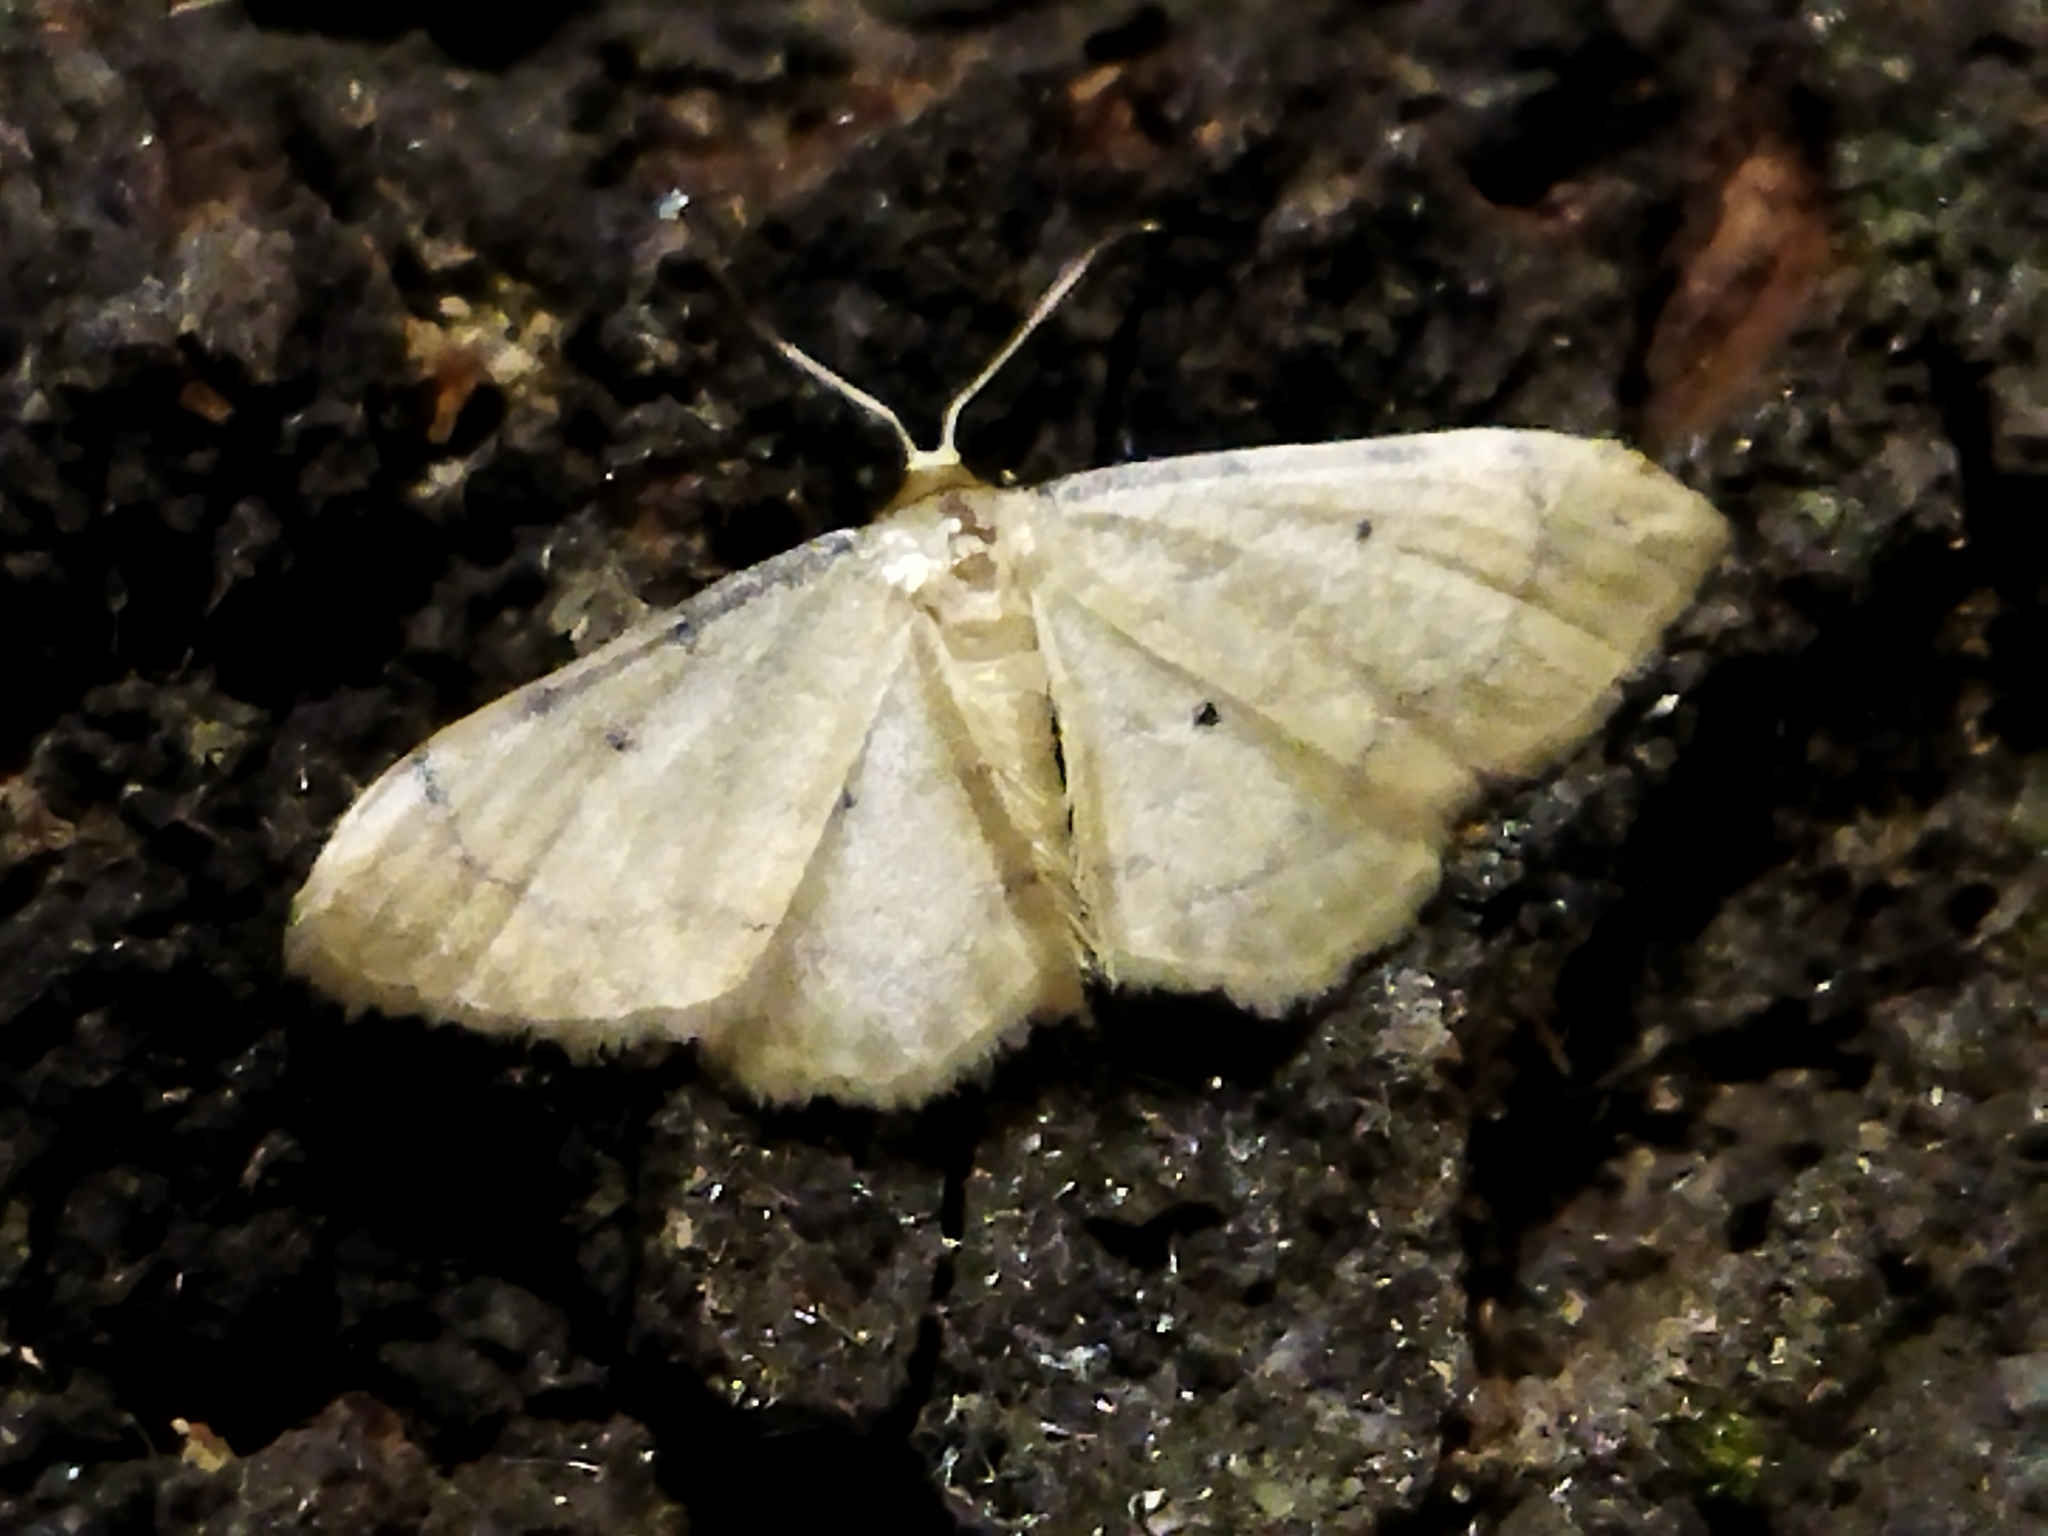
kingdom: Animalia
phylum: Arthropoda
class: Insecta
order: Lepidoptera
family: Geometridae
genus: Idaea
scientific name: Idaea politaria
